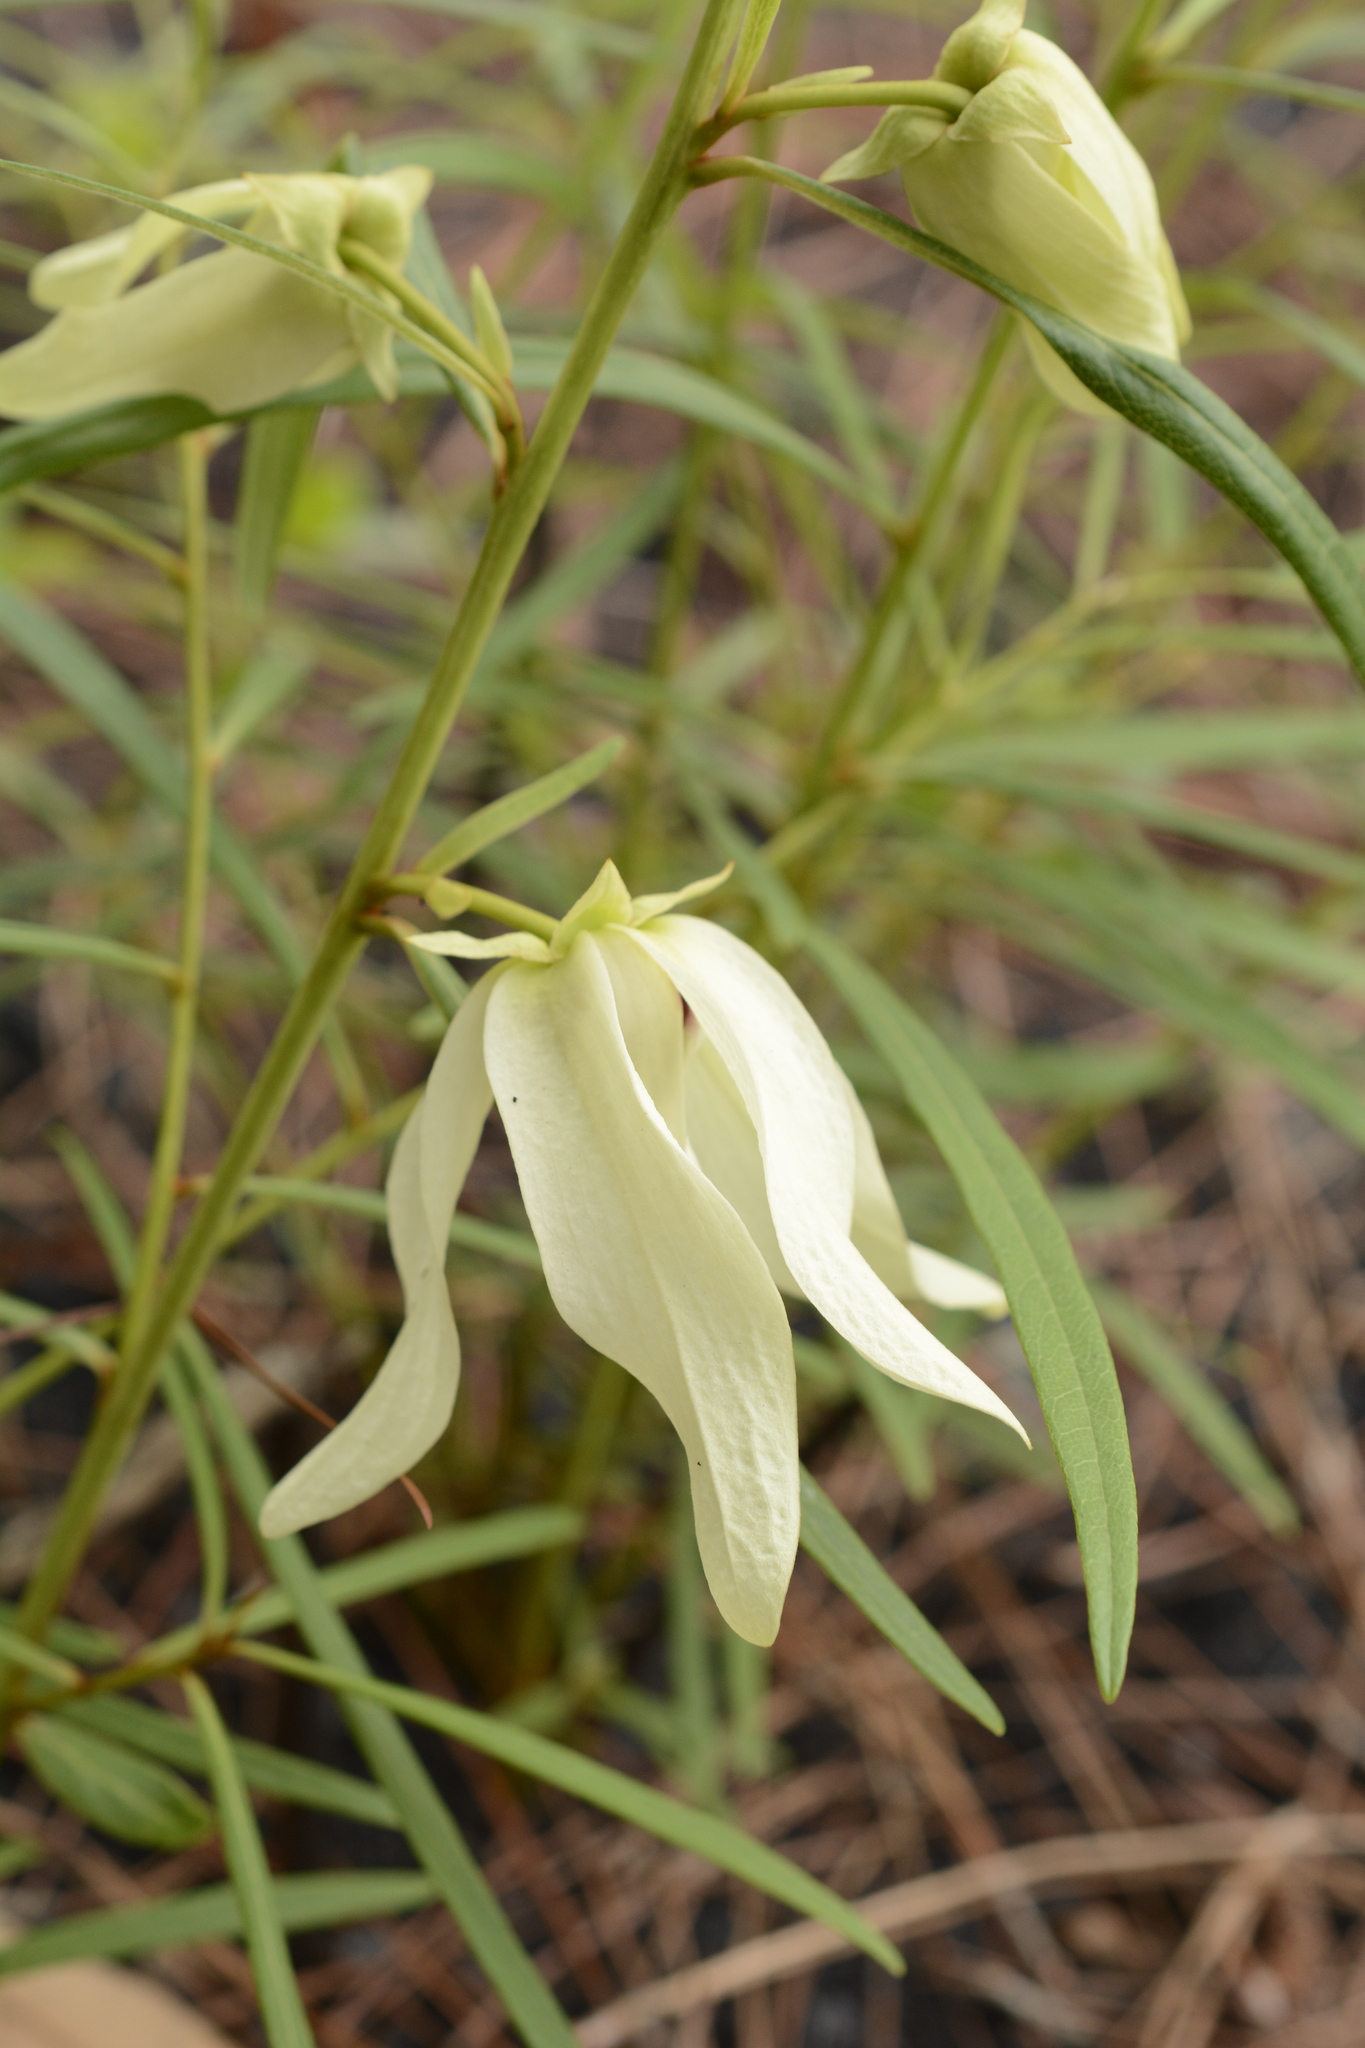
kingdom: Plantae
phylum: Tracheophyta
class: Magnoliopsida
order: Magnoliales
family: Annonaceae
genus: Asimina
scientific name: Asimina longifolia
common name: Polecatbush
